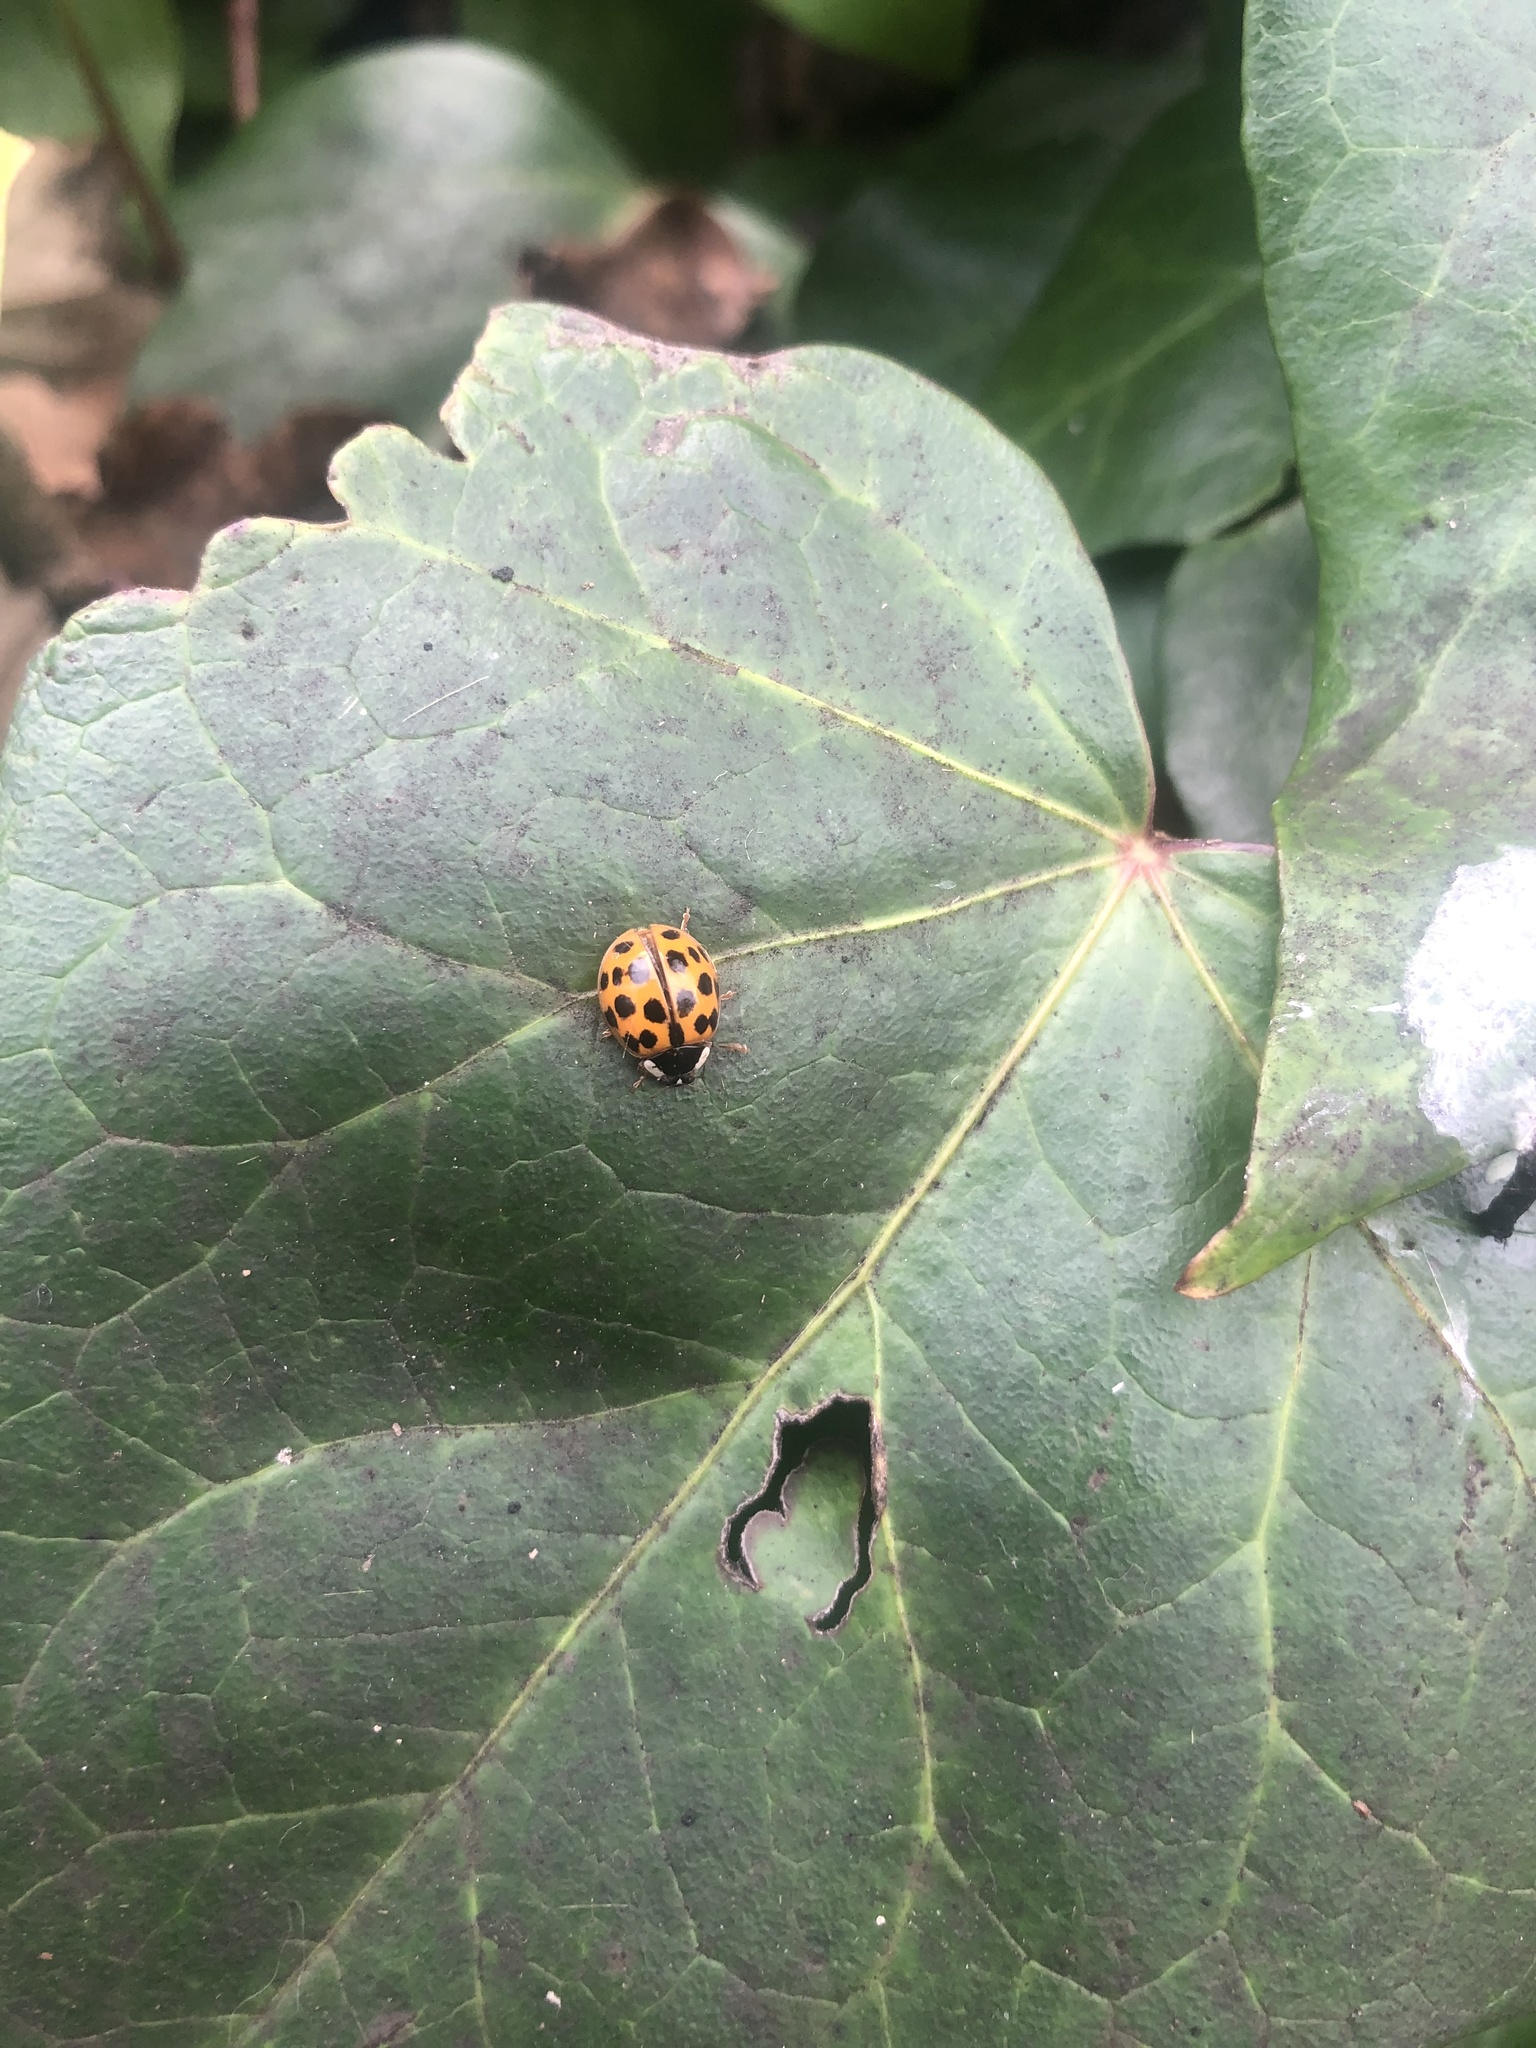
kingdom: Animalia
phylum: Arthropoda
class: Insecta
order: Coleoptera
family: Coccinellidae
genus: Harmonia
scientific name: Harmonia axyridis
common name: Harlequin ladybird
